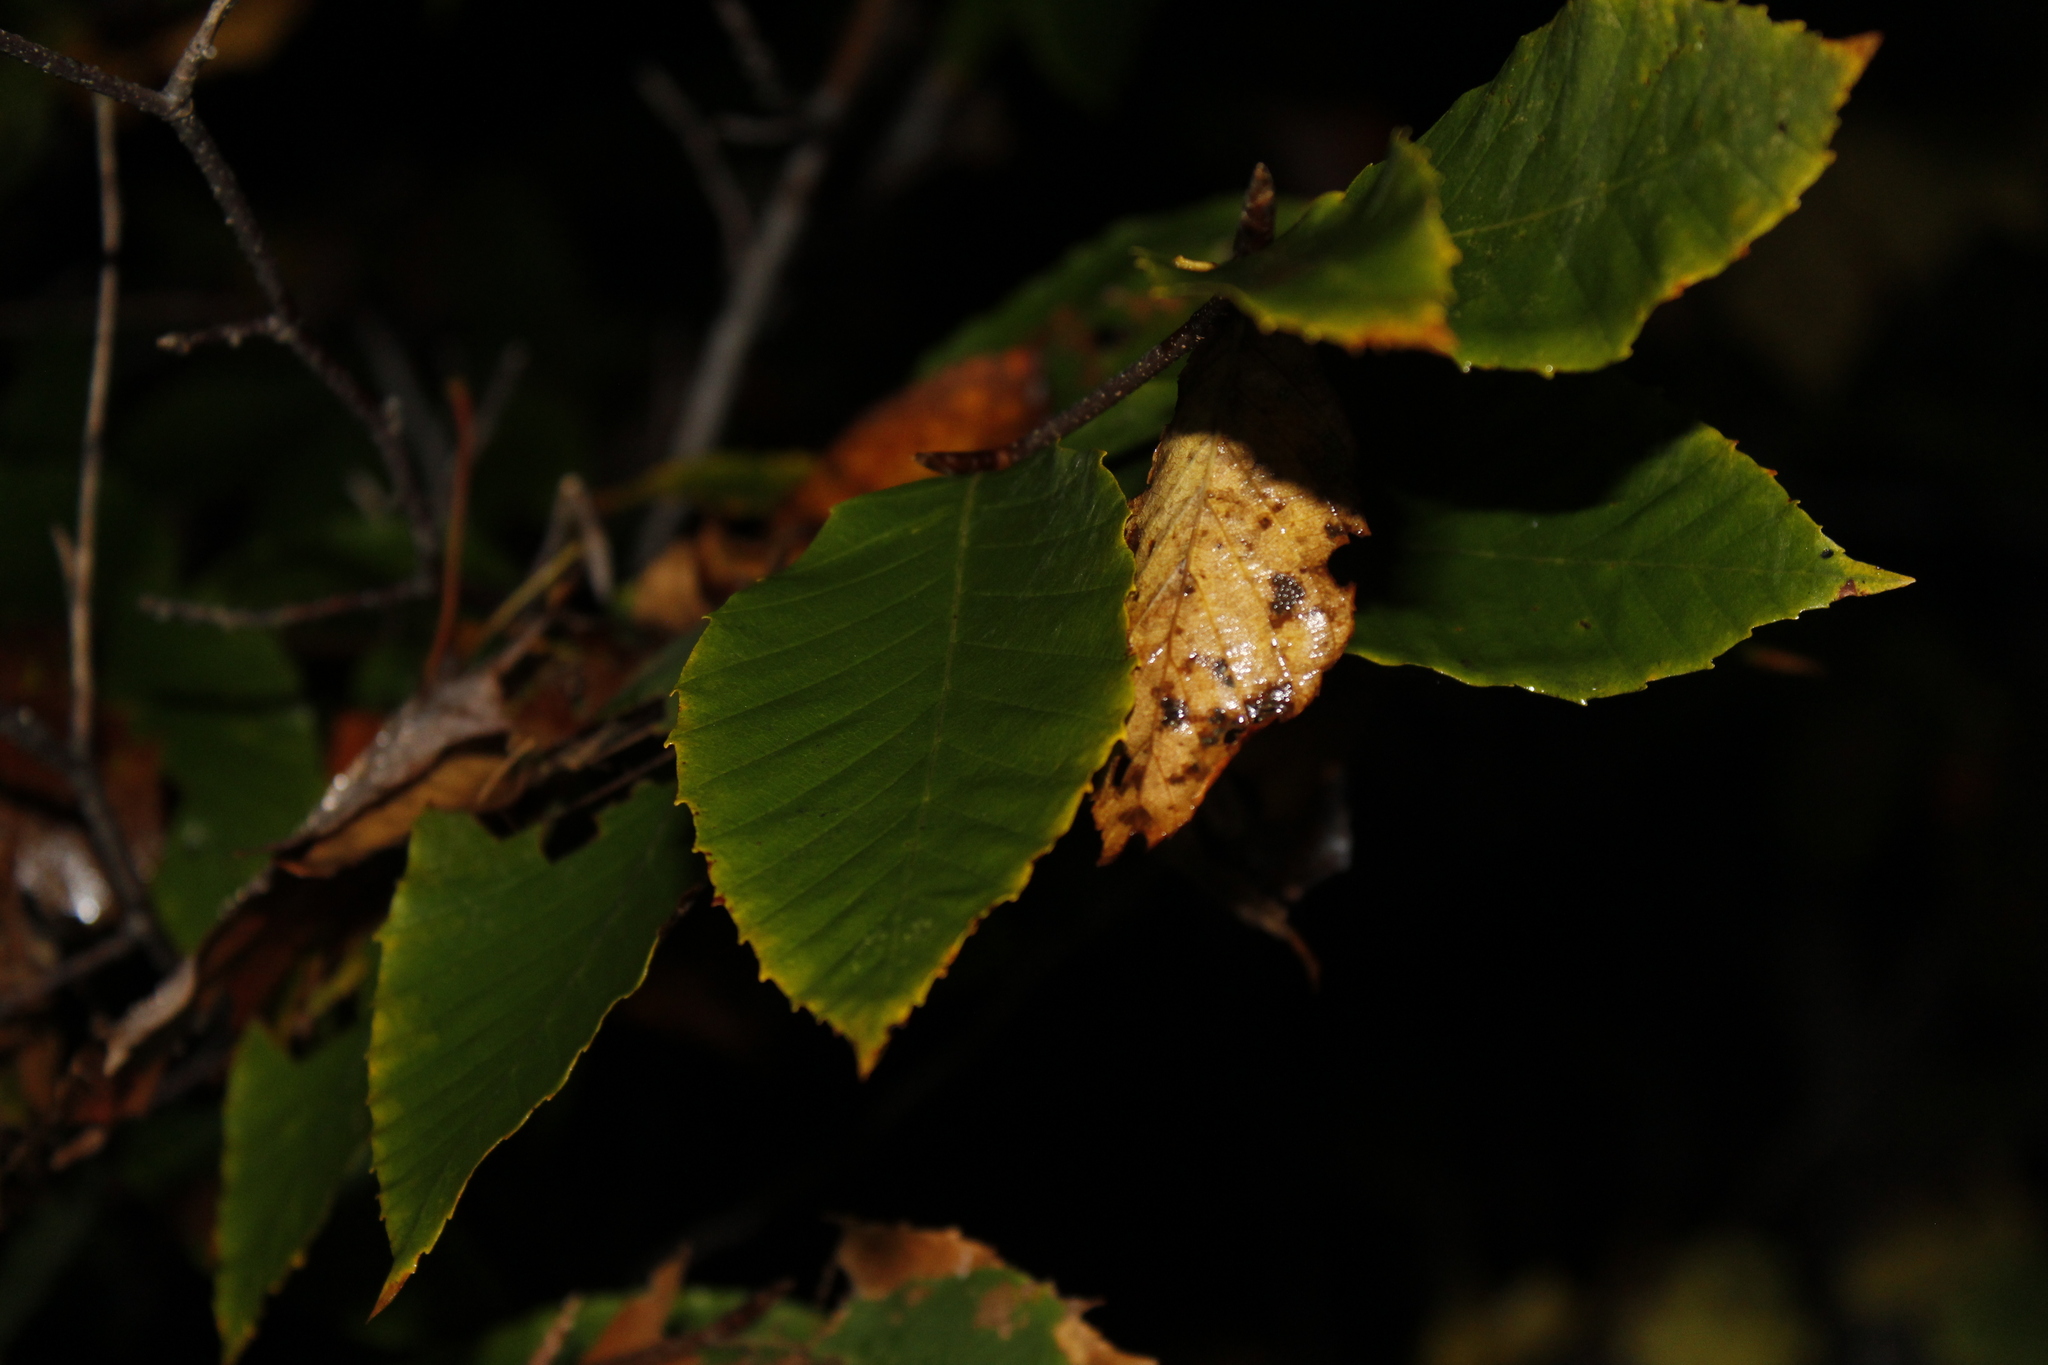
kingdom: Plantae
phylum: Tracheophyta
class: Magnoliopsida
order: Fagales
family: Fagaceae
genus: Fagus
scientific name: Fagus grandifolia
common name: American beech
